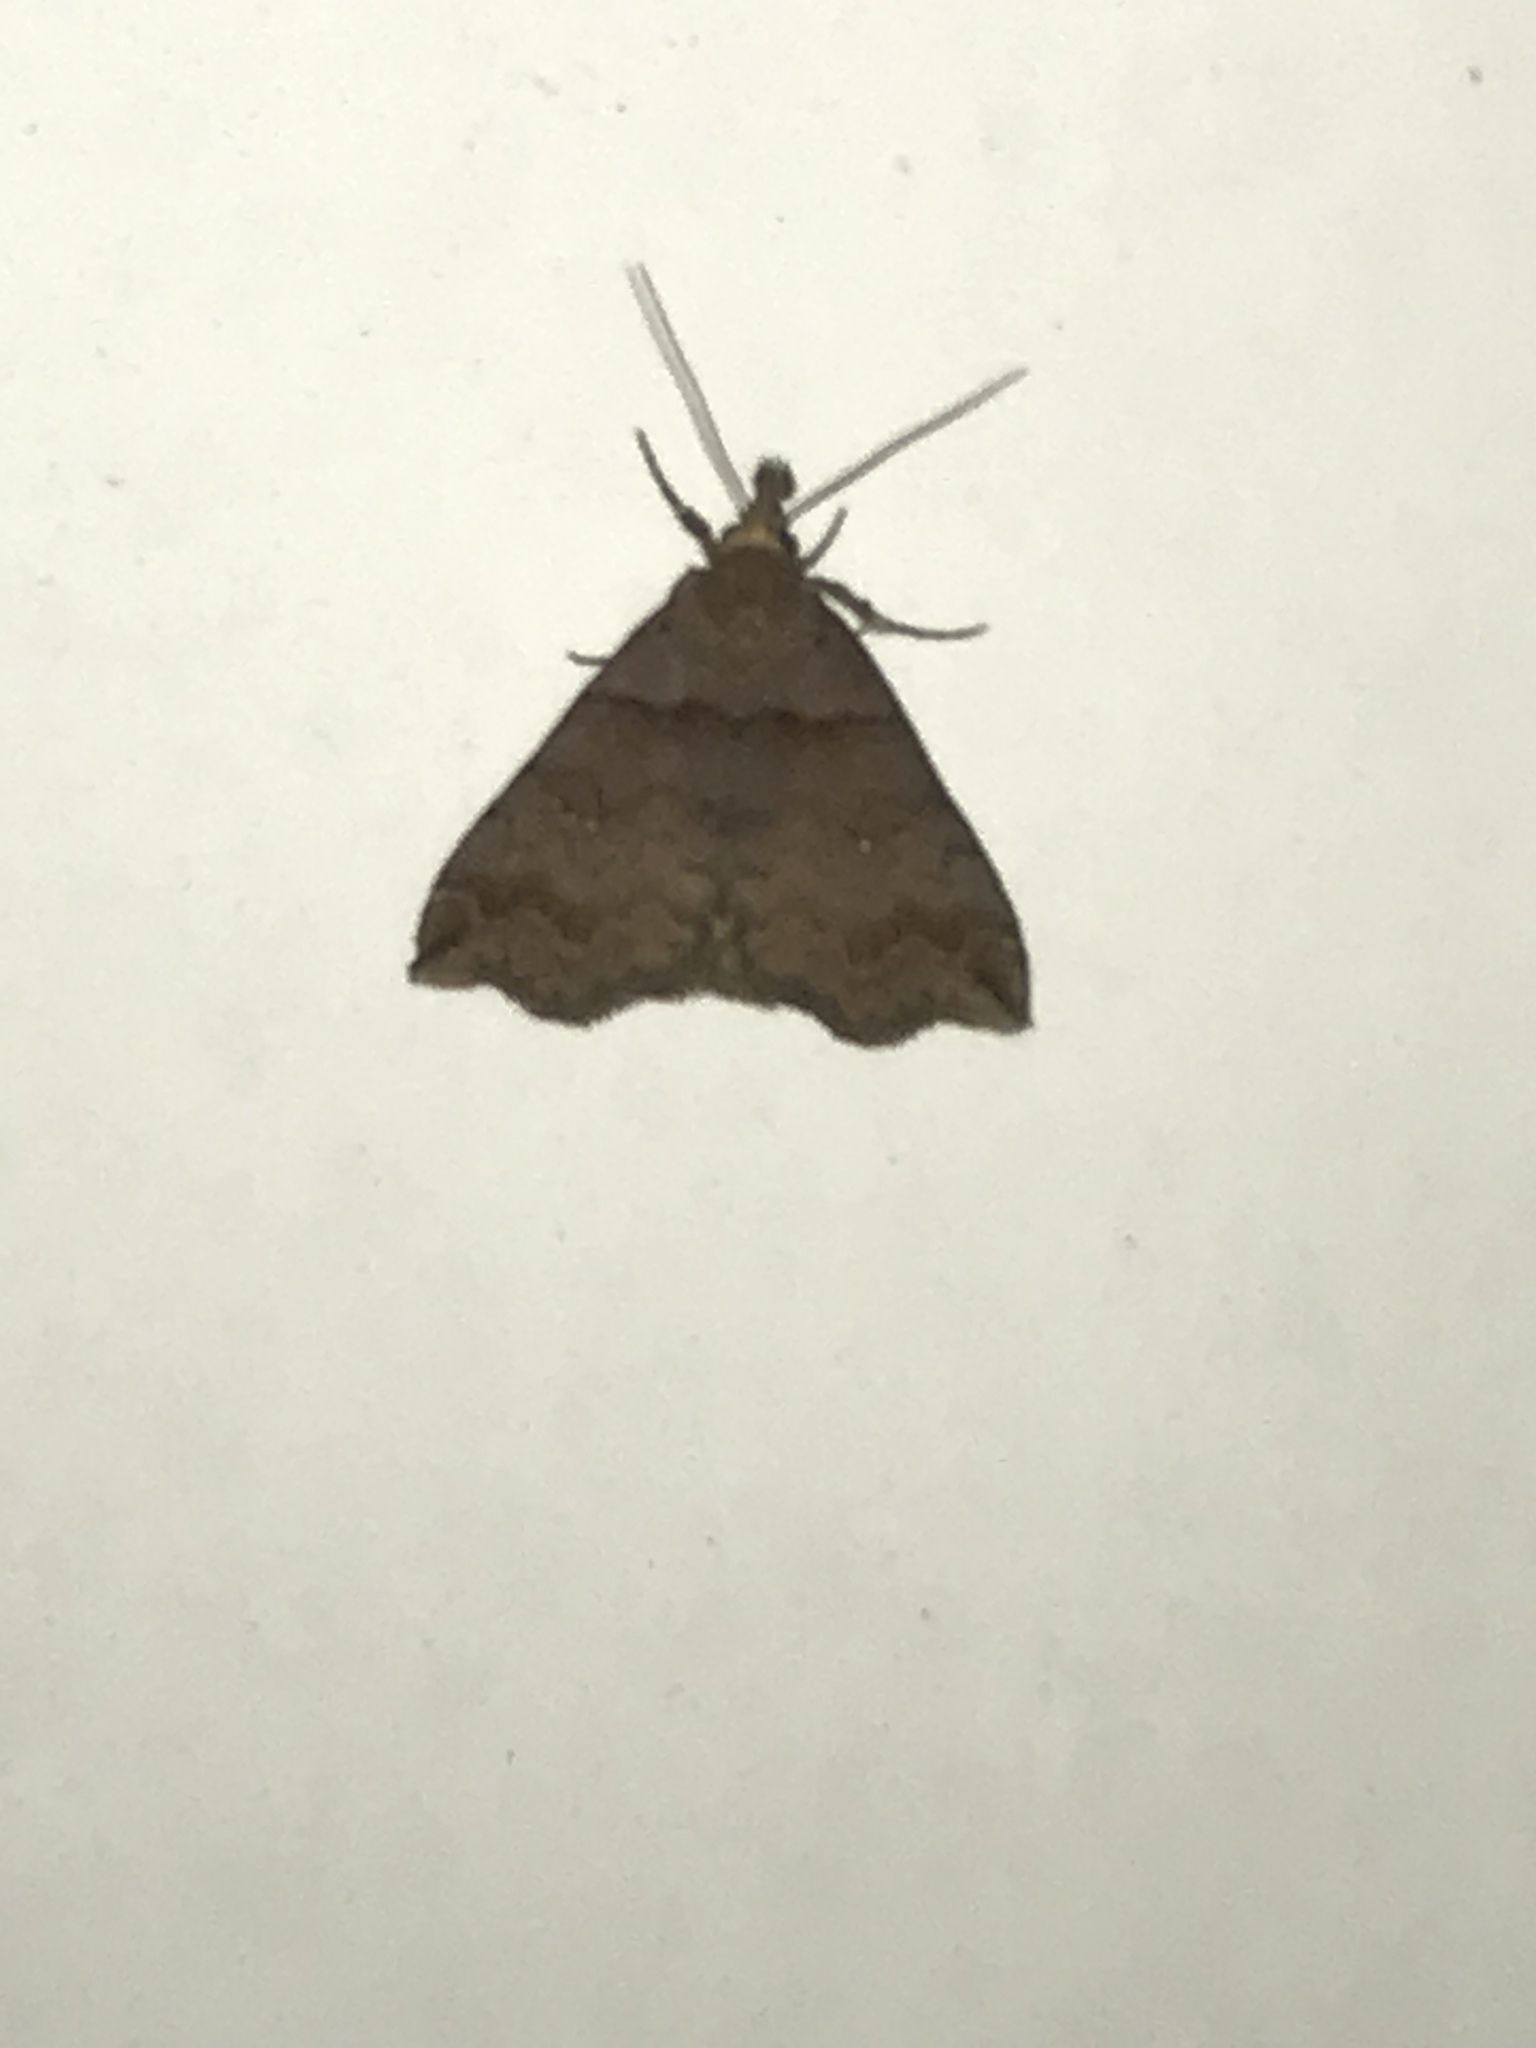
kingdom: Animalia
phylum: Arthropoda
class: Insecta
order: Lepidoptera
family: Erebidae
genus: Lascoria
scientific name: Lascoria ambigualis
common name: Ambiguous moth
